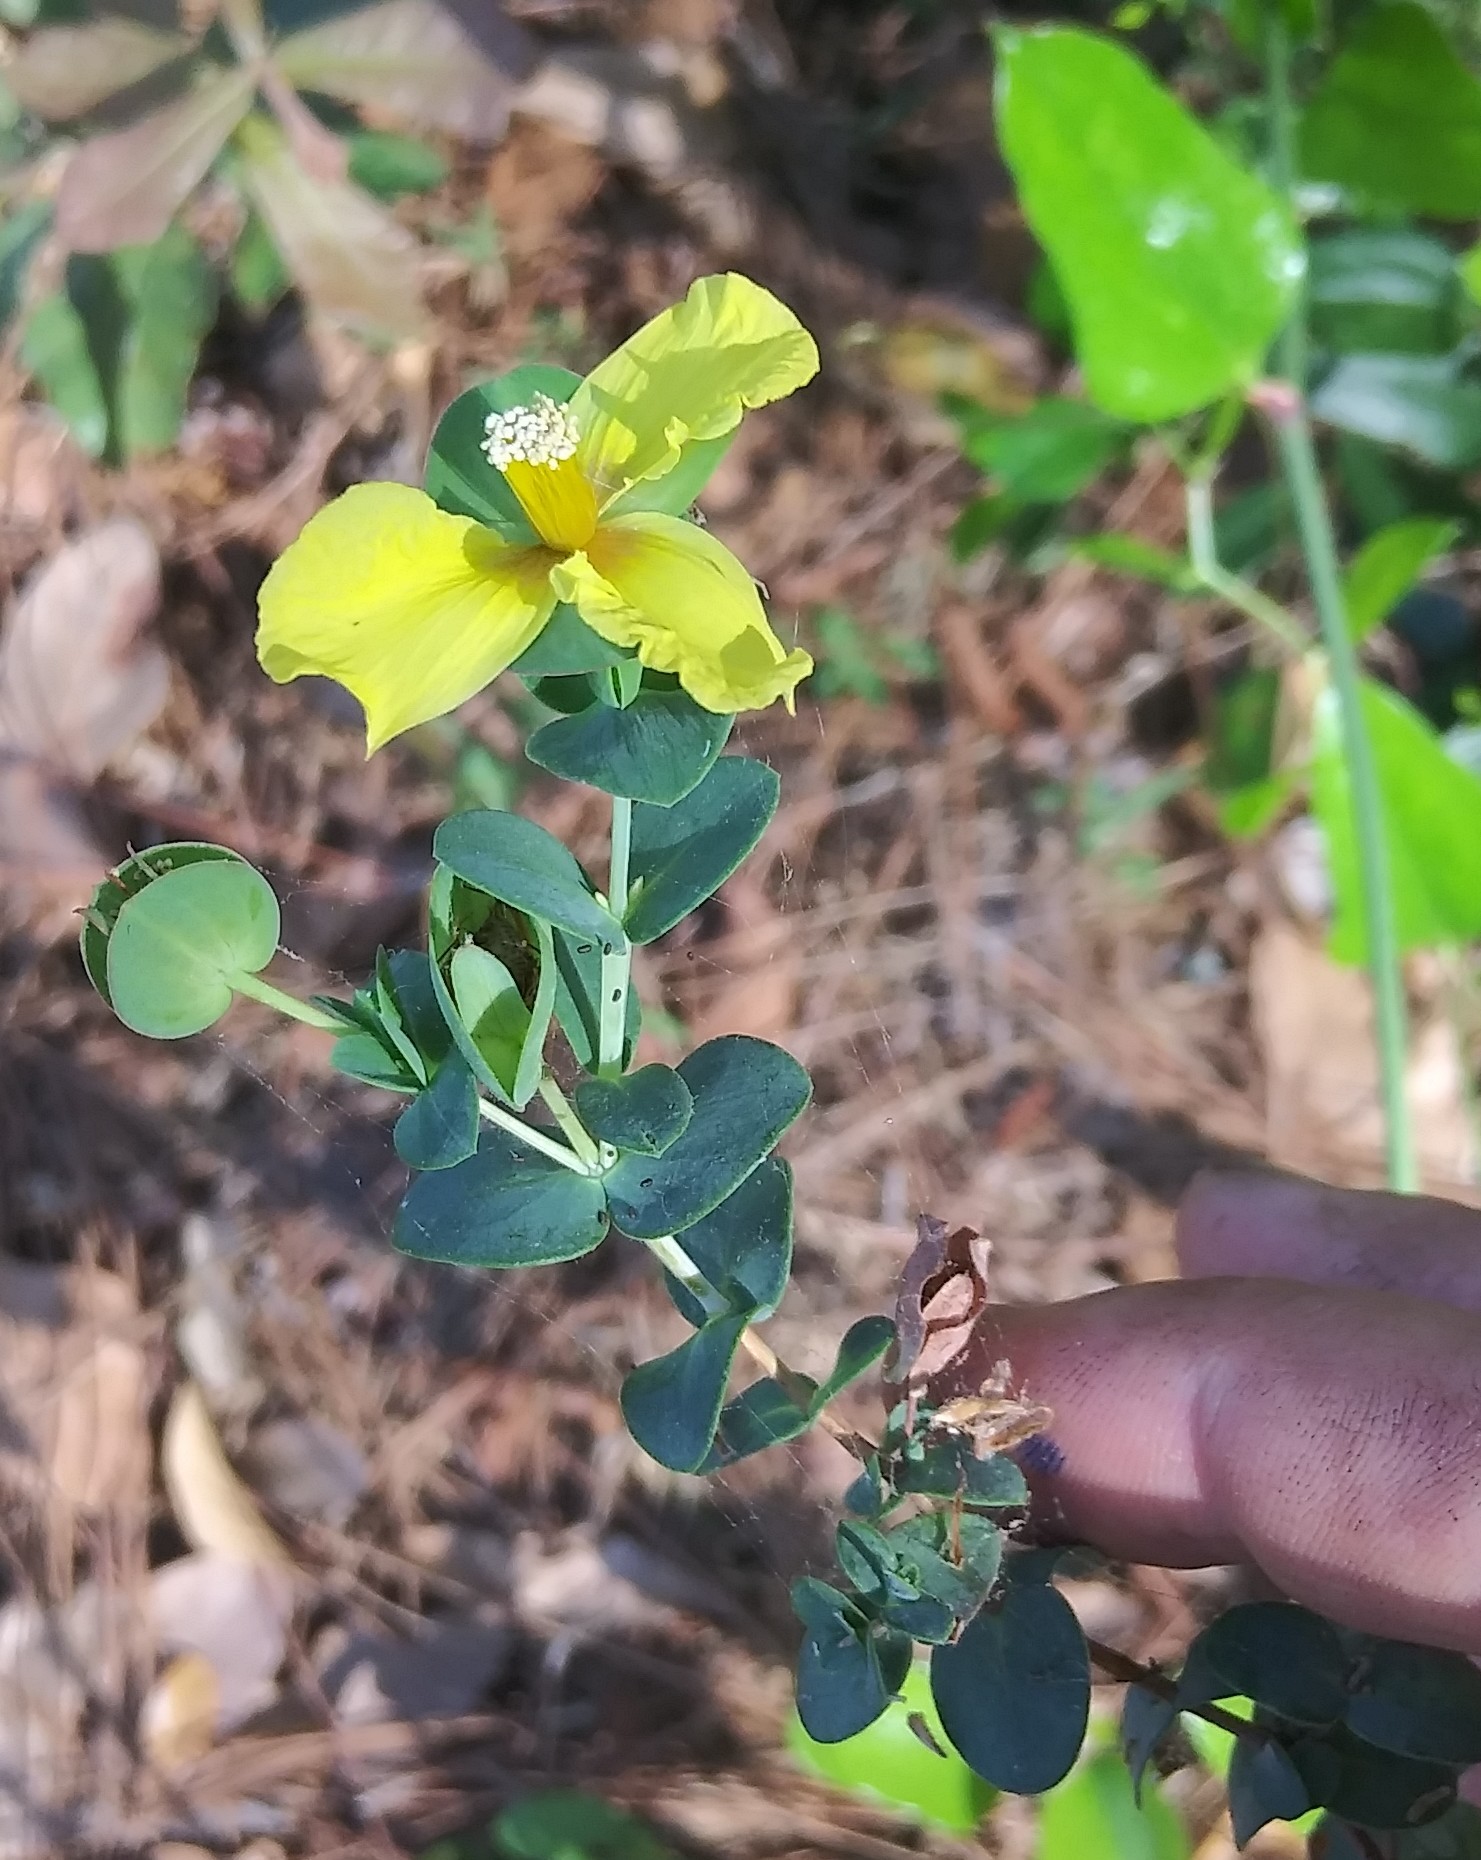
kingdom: Plantae
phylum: Tracheophyta
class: Magnoliopsida
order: Malpighiales
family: Hypericaceae
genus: Hypericum
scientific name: Hypericum tetrapetalum
